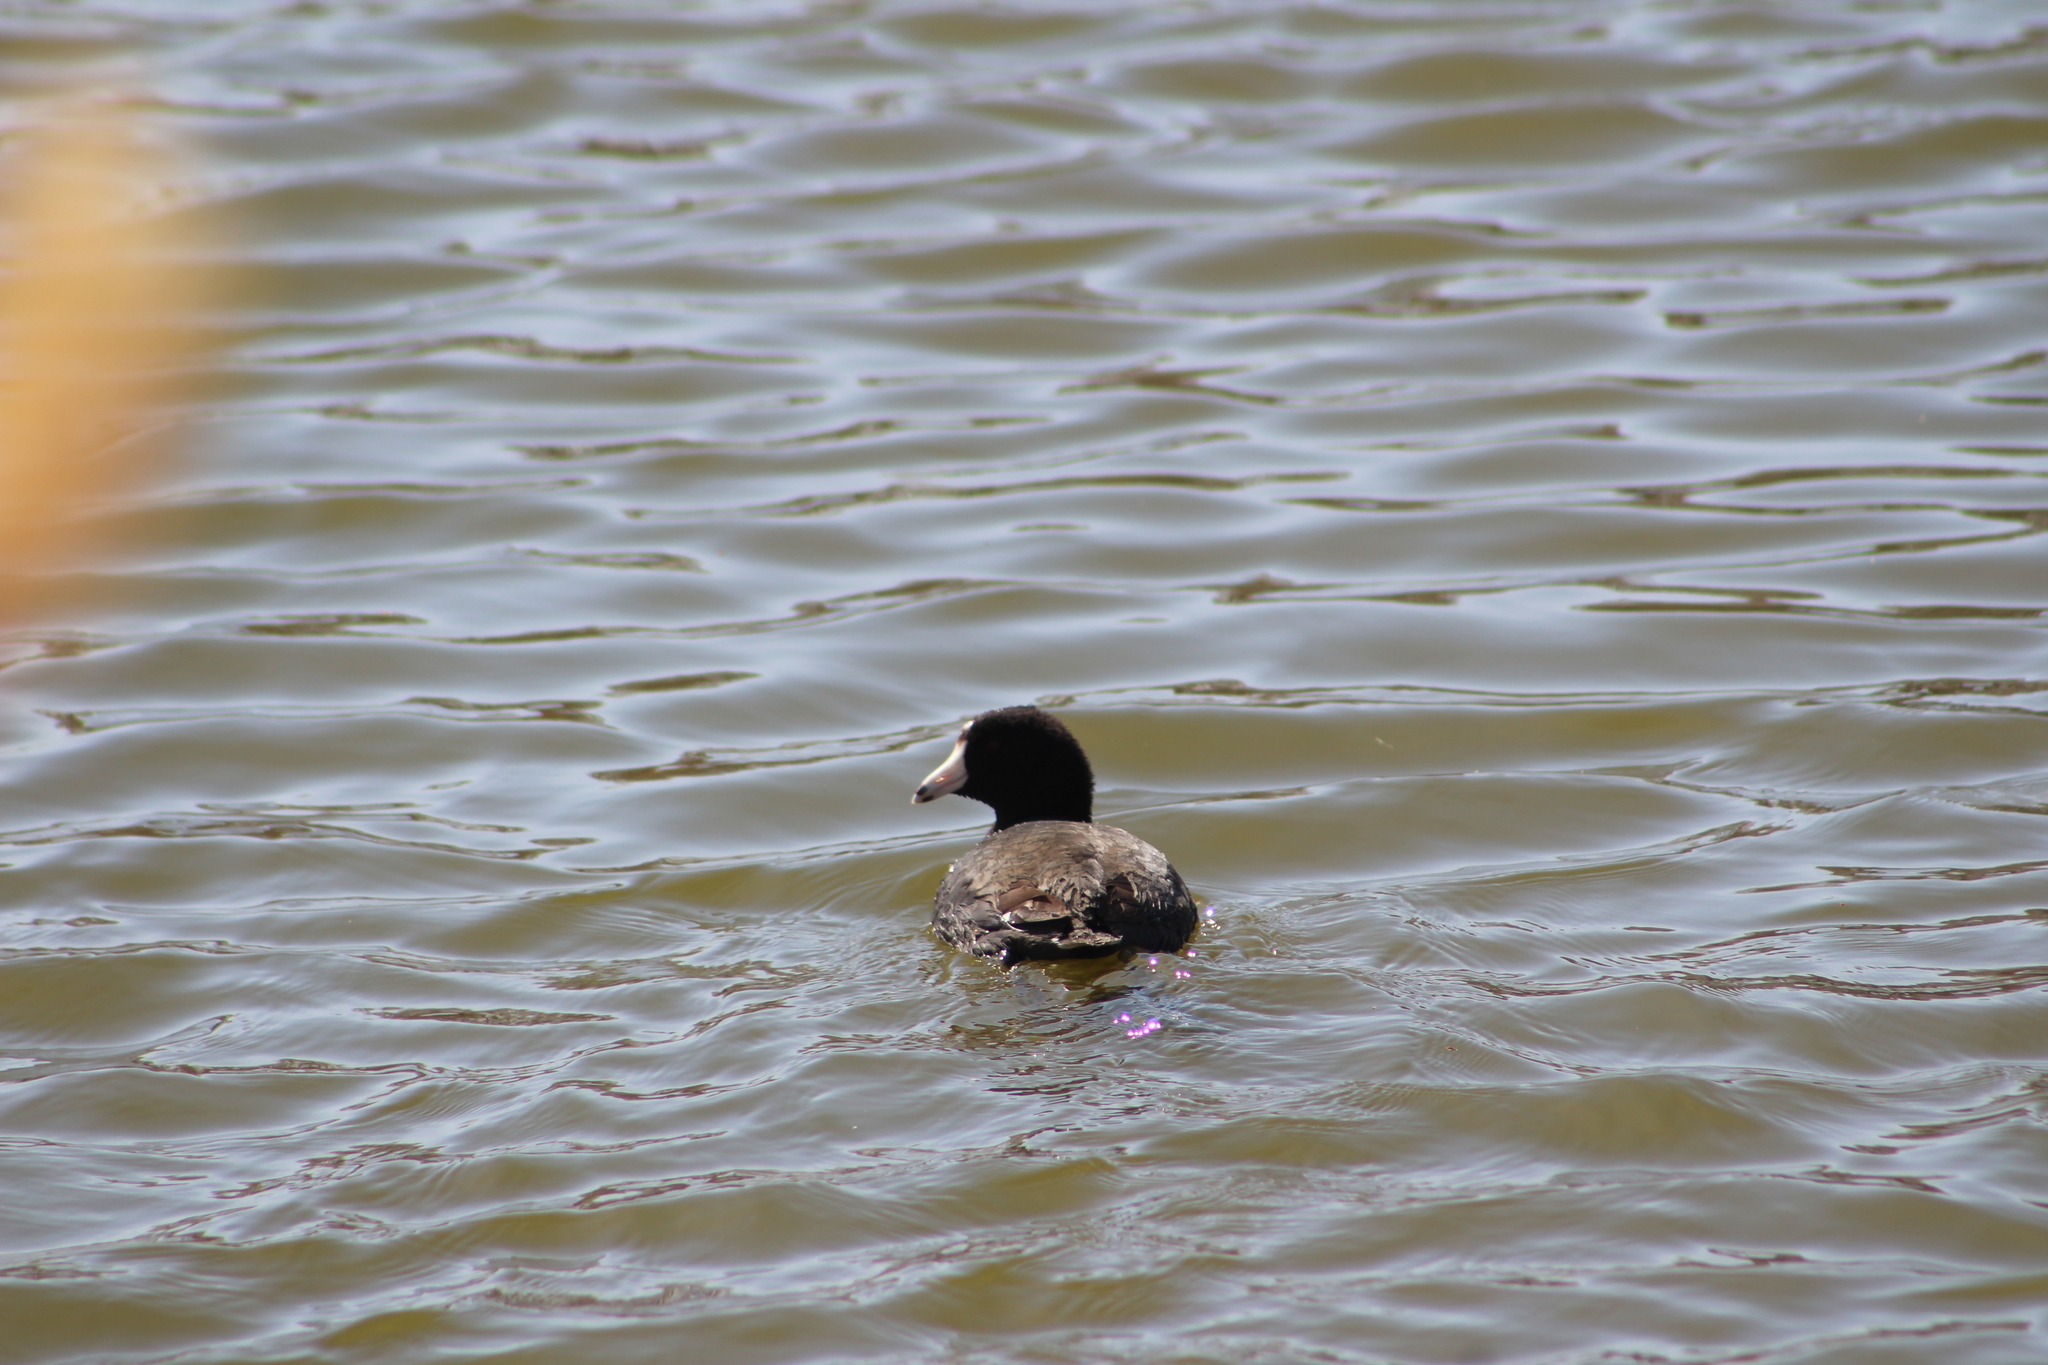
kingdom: Animalia
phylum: Chordata
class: Aves
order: Gruiformes
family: Rallidae
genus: Fulica
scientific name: Fulica americana
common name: American coot
